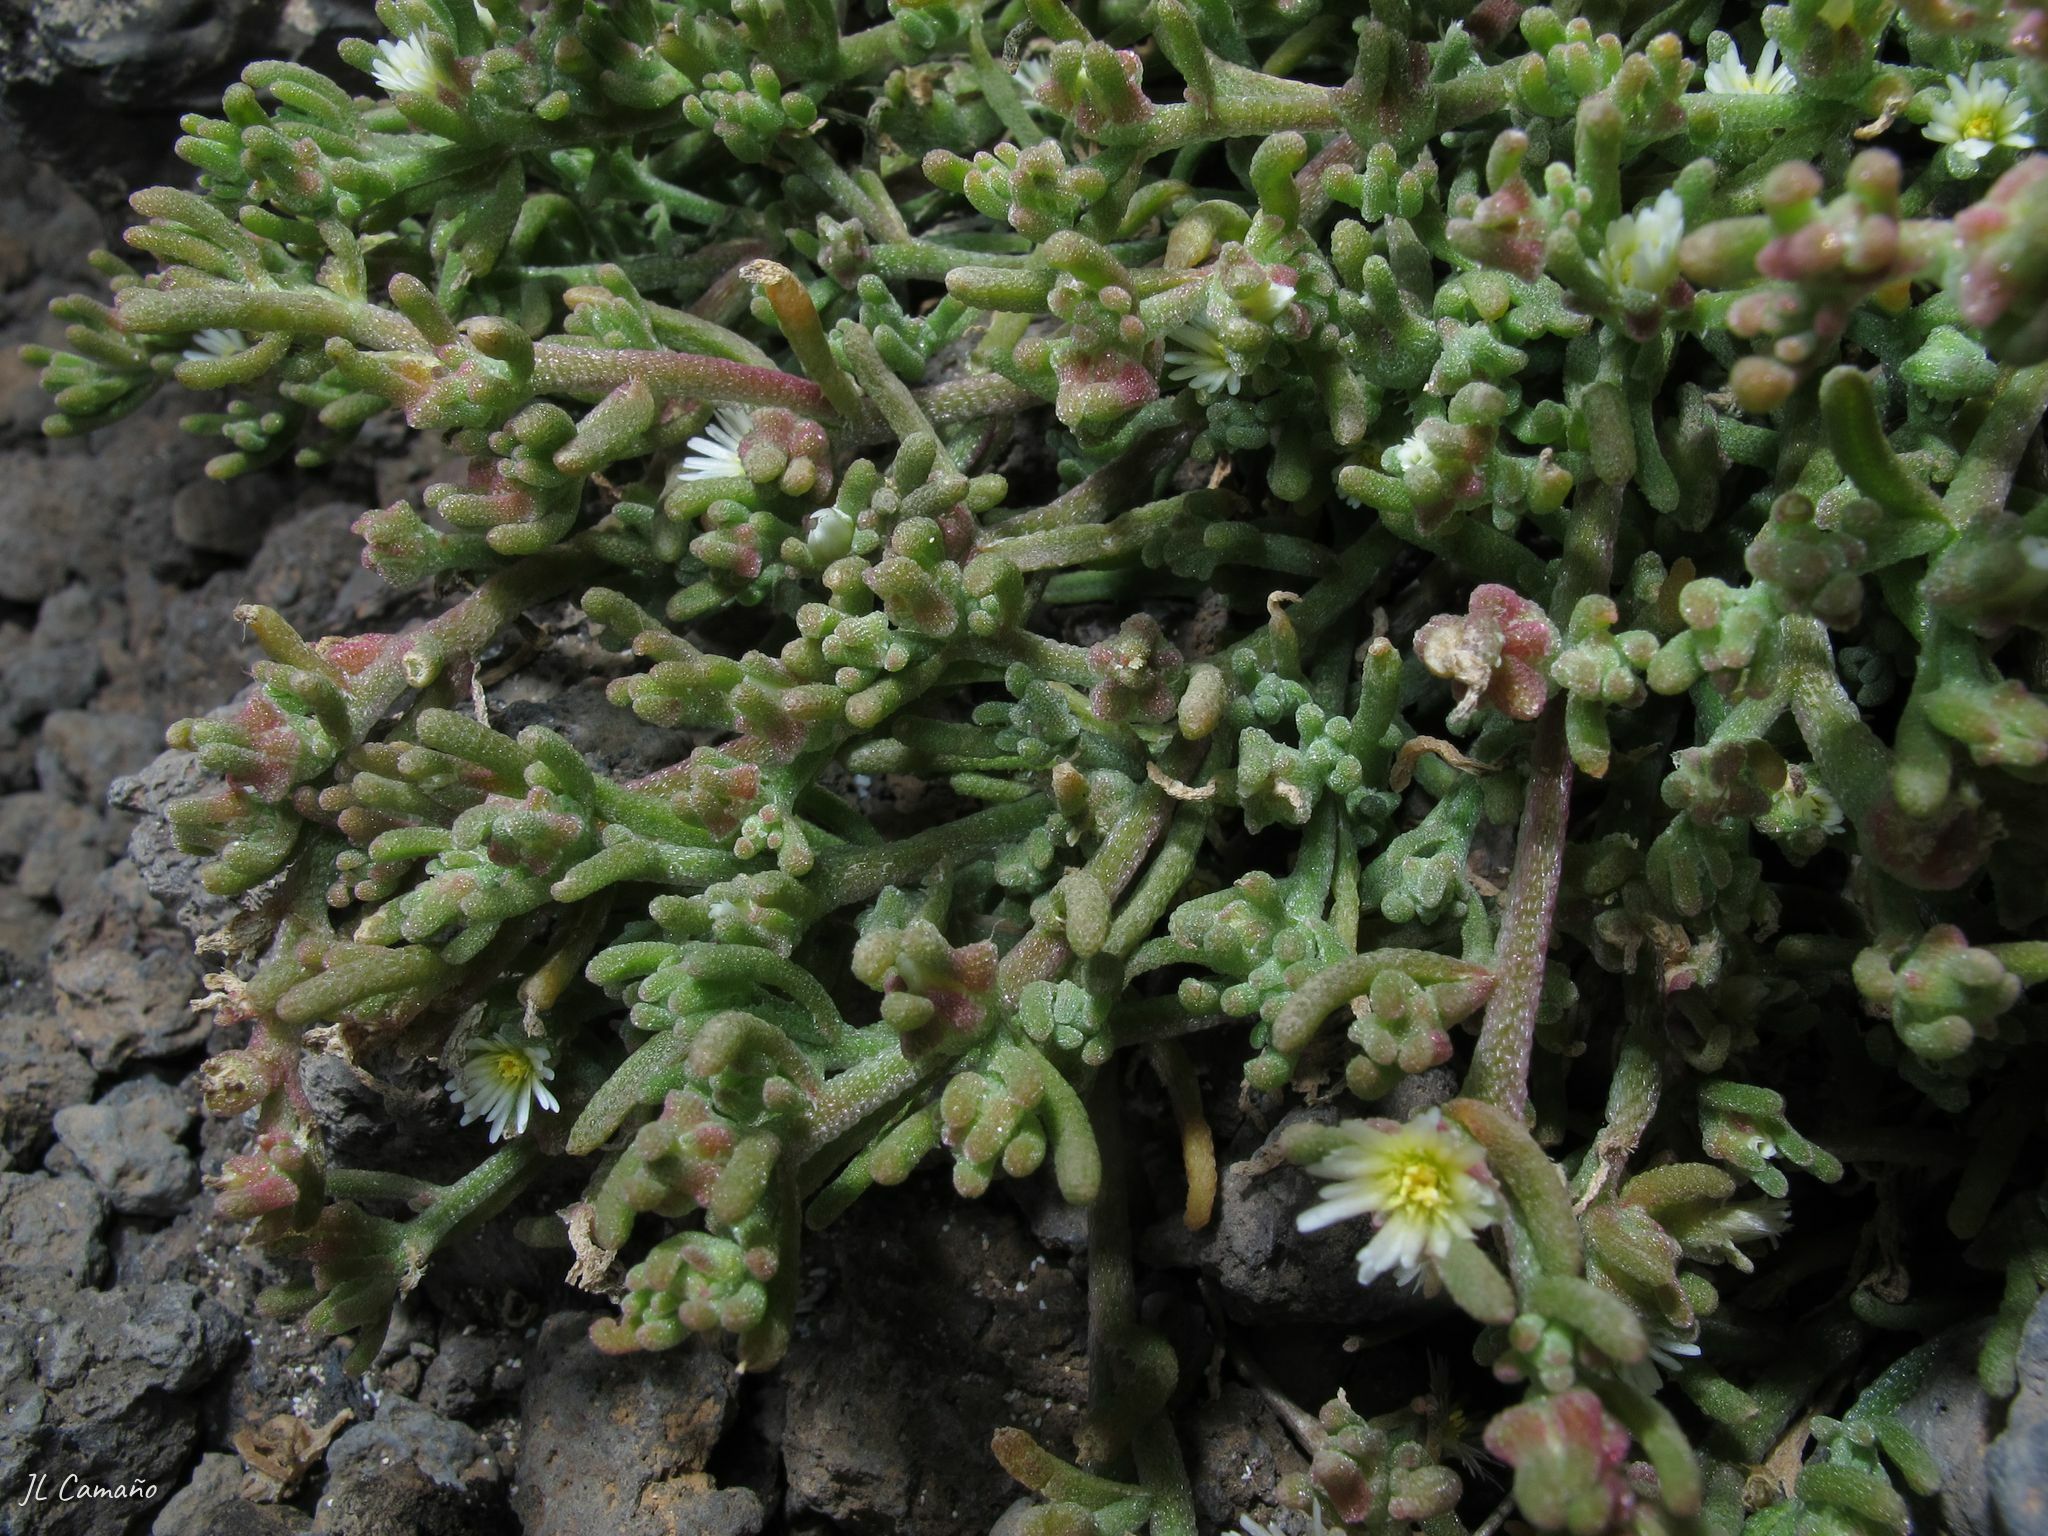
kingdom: Plantae
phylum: Tracheophyta
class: Magnoliopsida
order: Caryophyllales
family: Aizoaceae
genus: Mesembryanthemum
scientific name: Mesembryanthemum nodiflorum
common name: Slenderleaf iceplant
